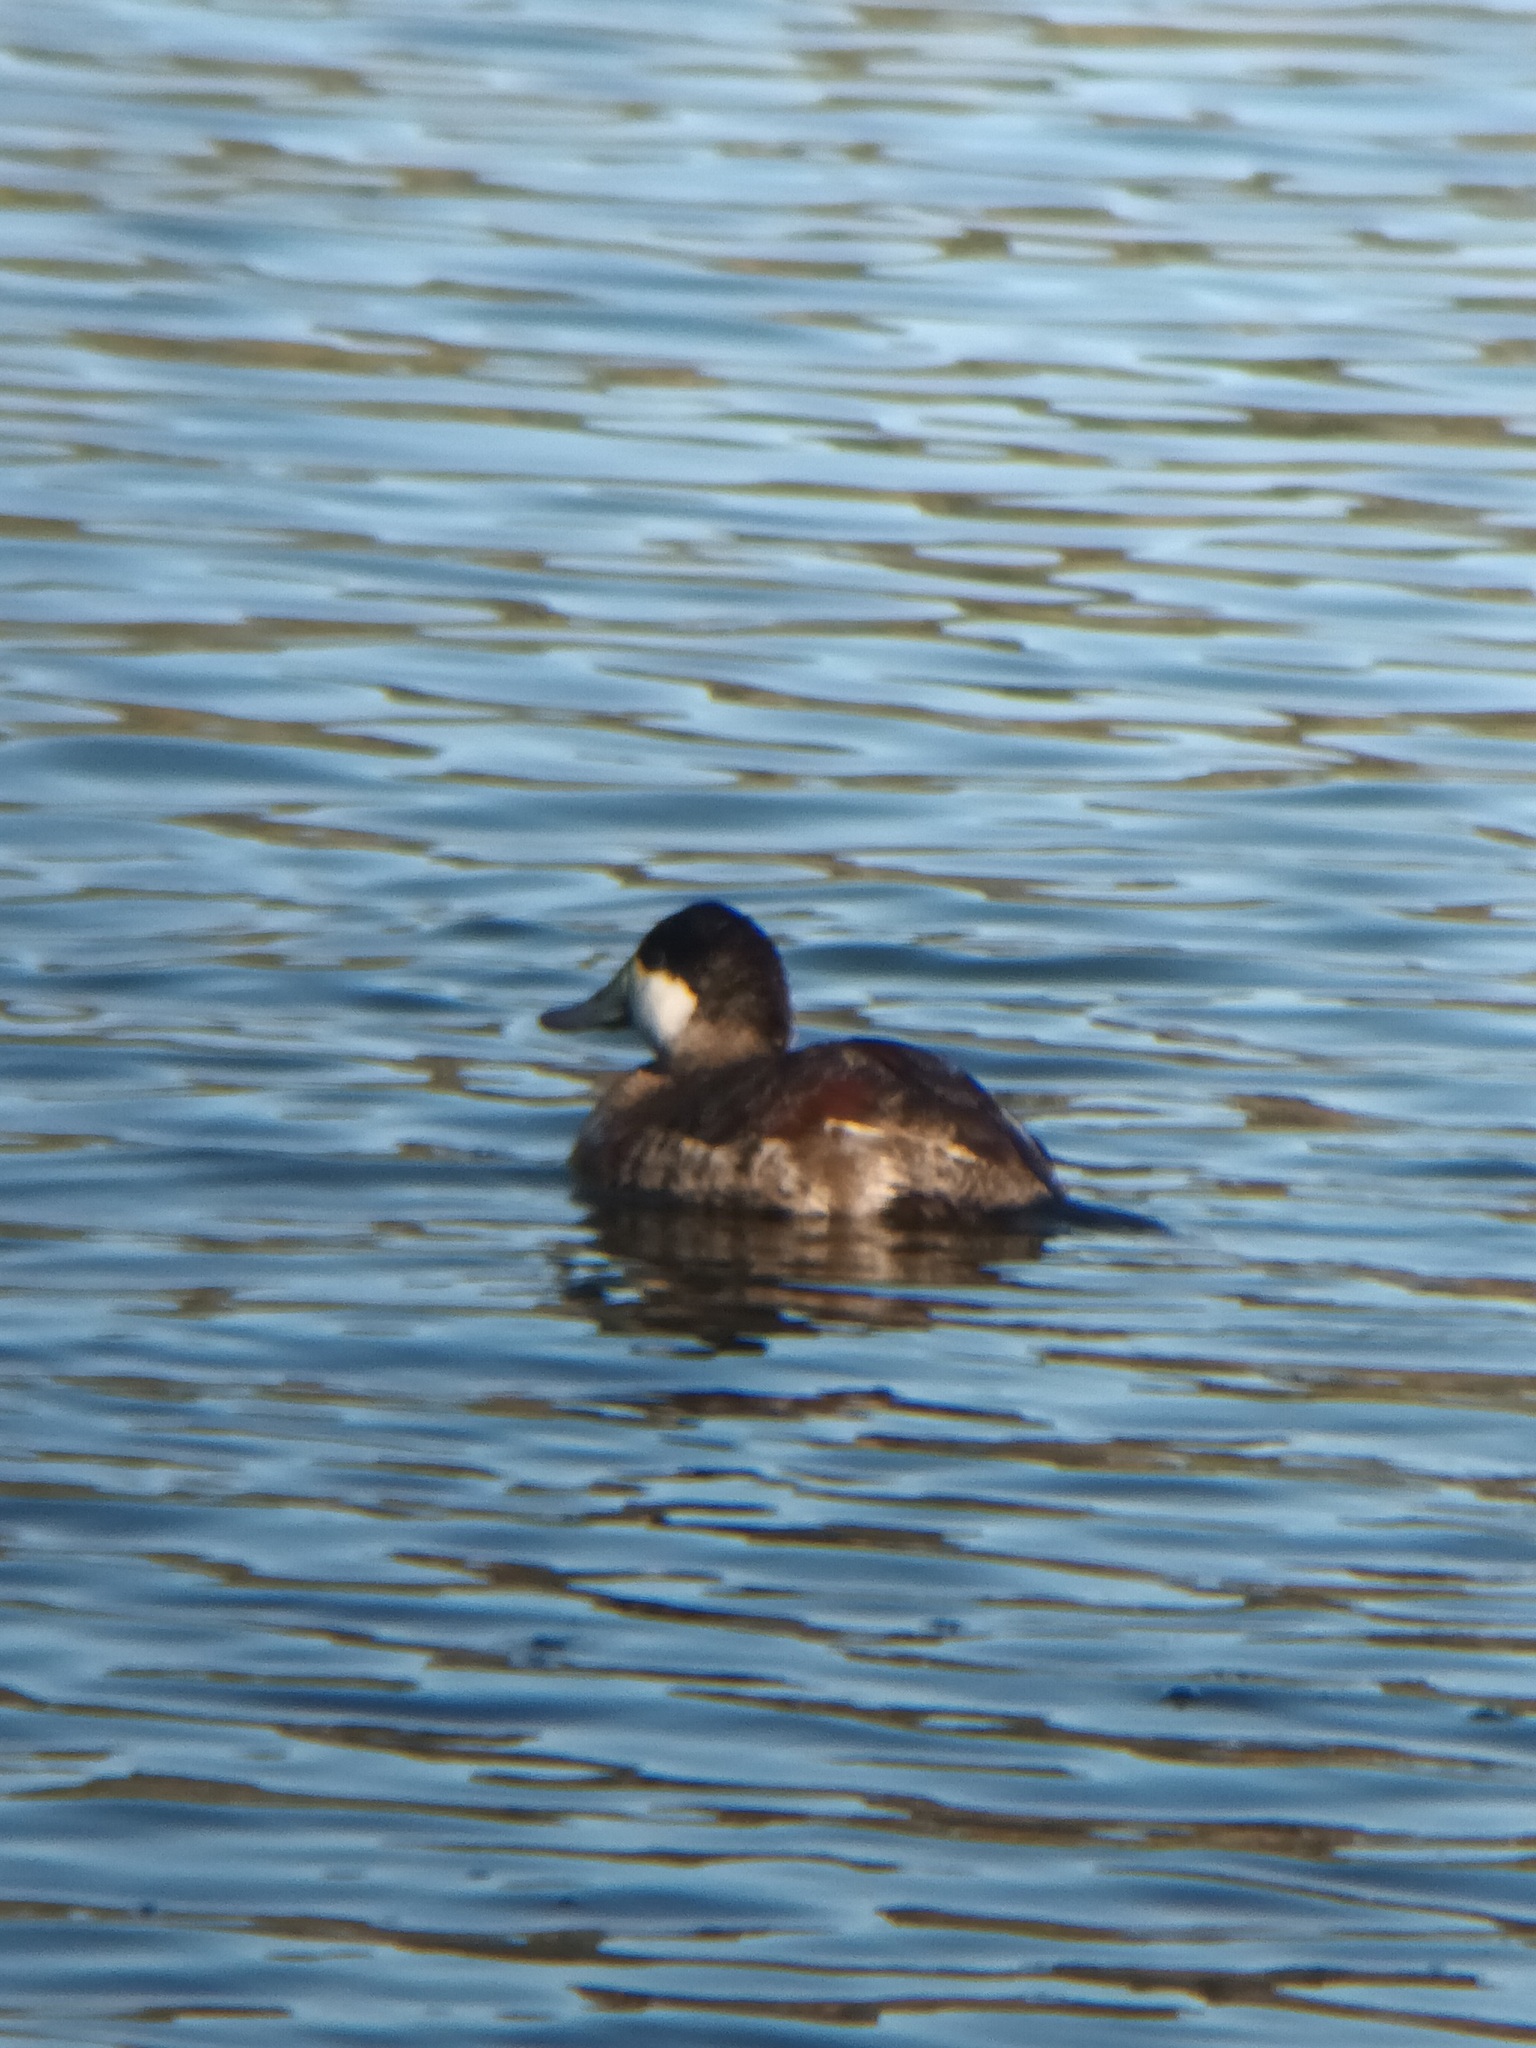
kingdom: Animalia
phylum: Chordata
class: Aves
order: Anseriformes
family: Anatidae
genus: Oxyura
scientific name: Oxyura jamaicensis
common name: Ruddy duck
